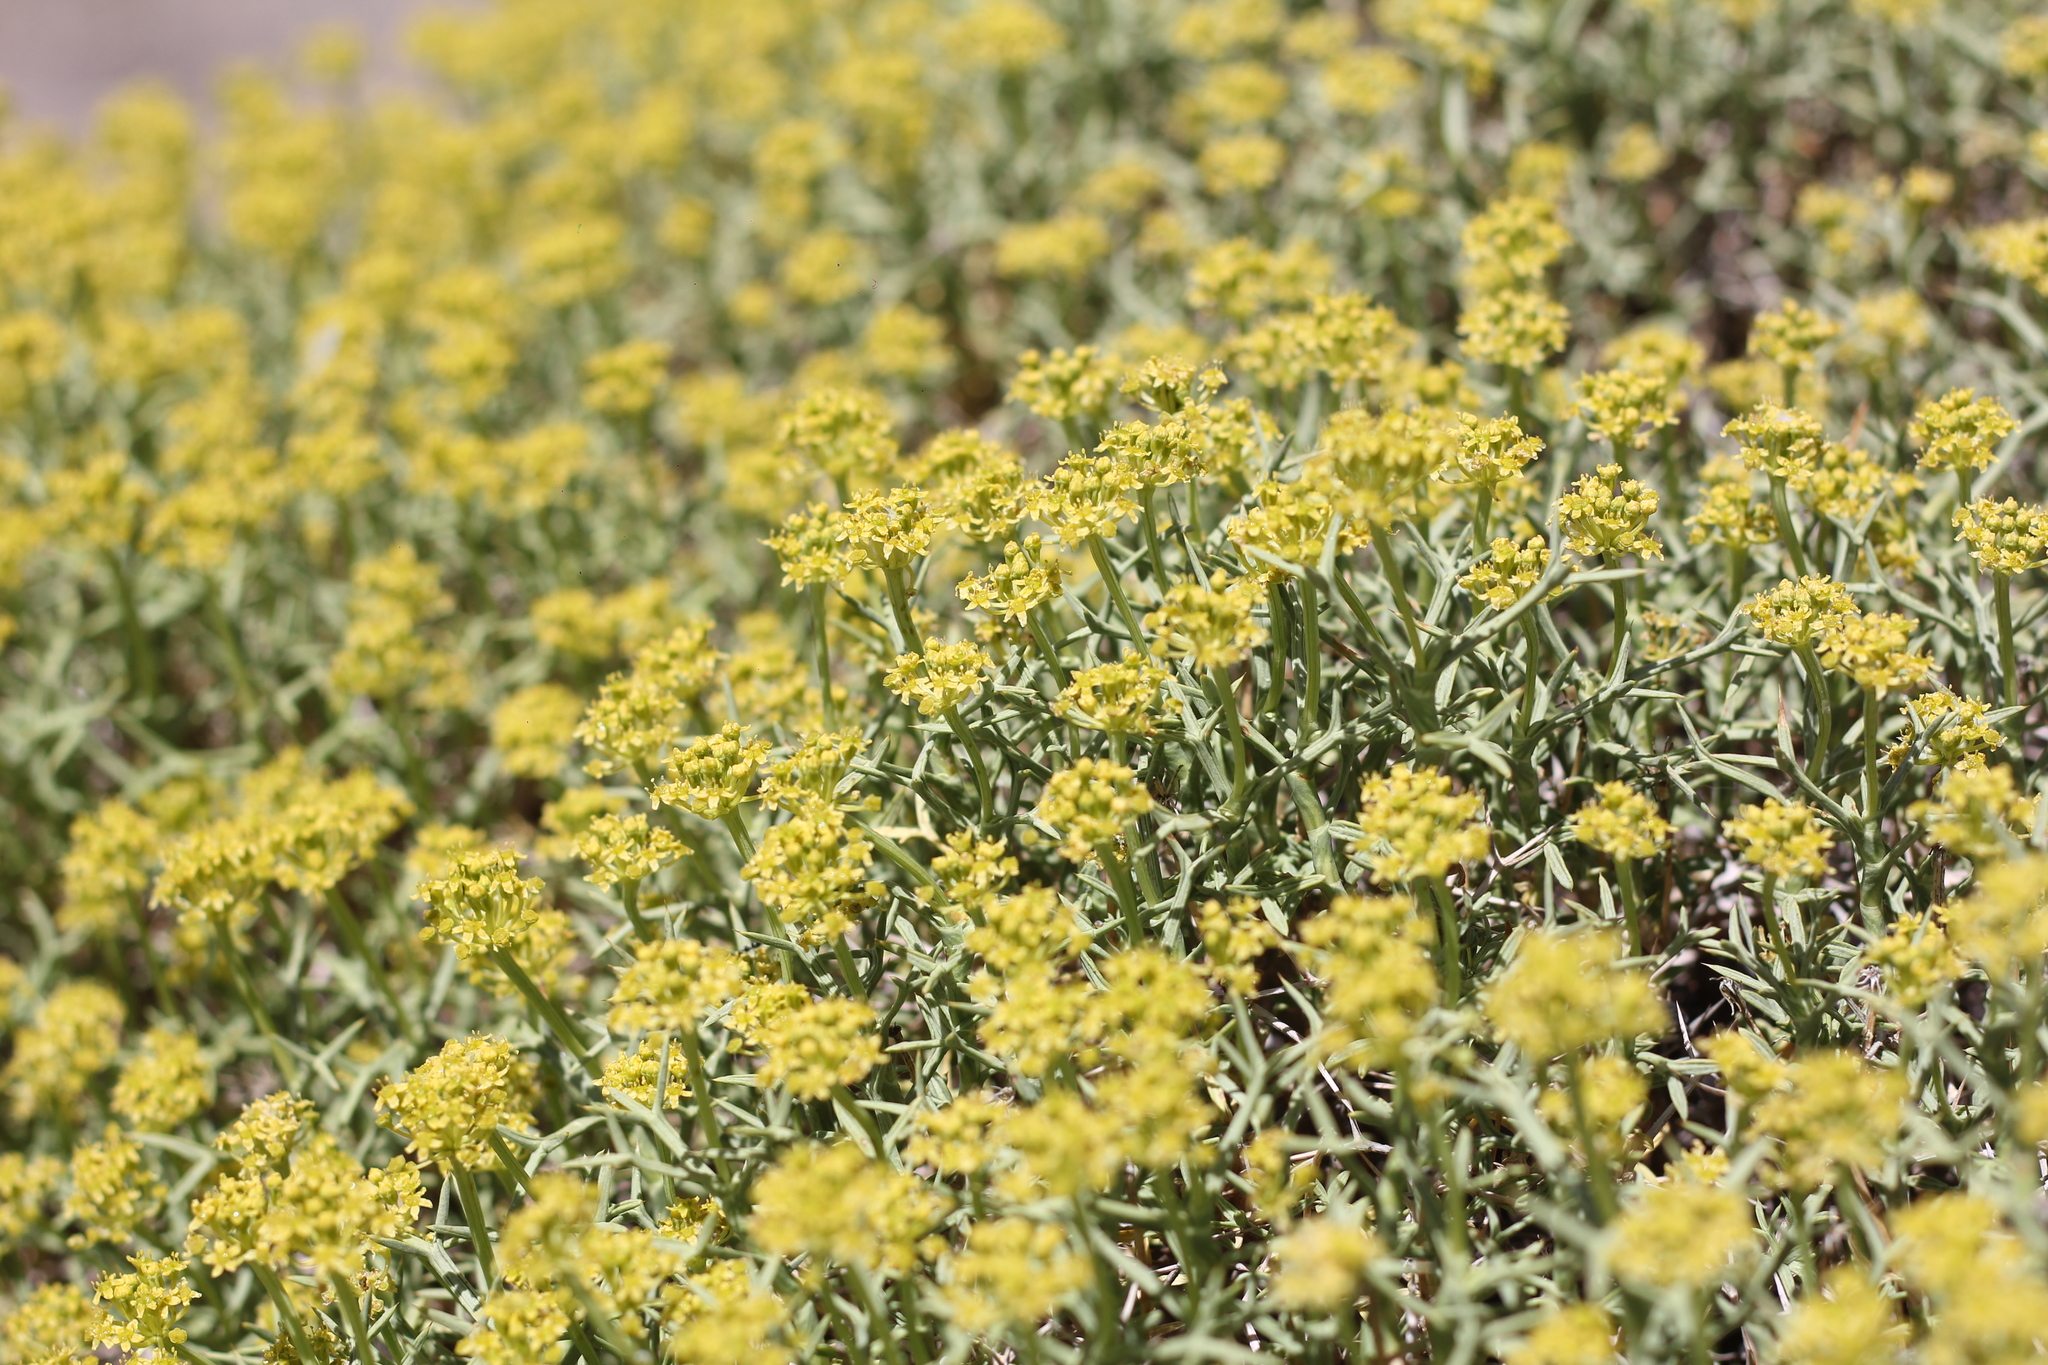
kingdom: Plantae
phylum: Tracheophyta
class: Magnoliopsida
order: Apiales
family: Apiaceae
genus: Azorella
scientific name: Azorella prolifera
